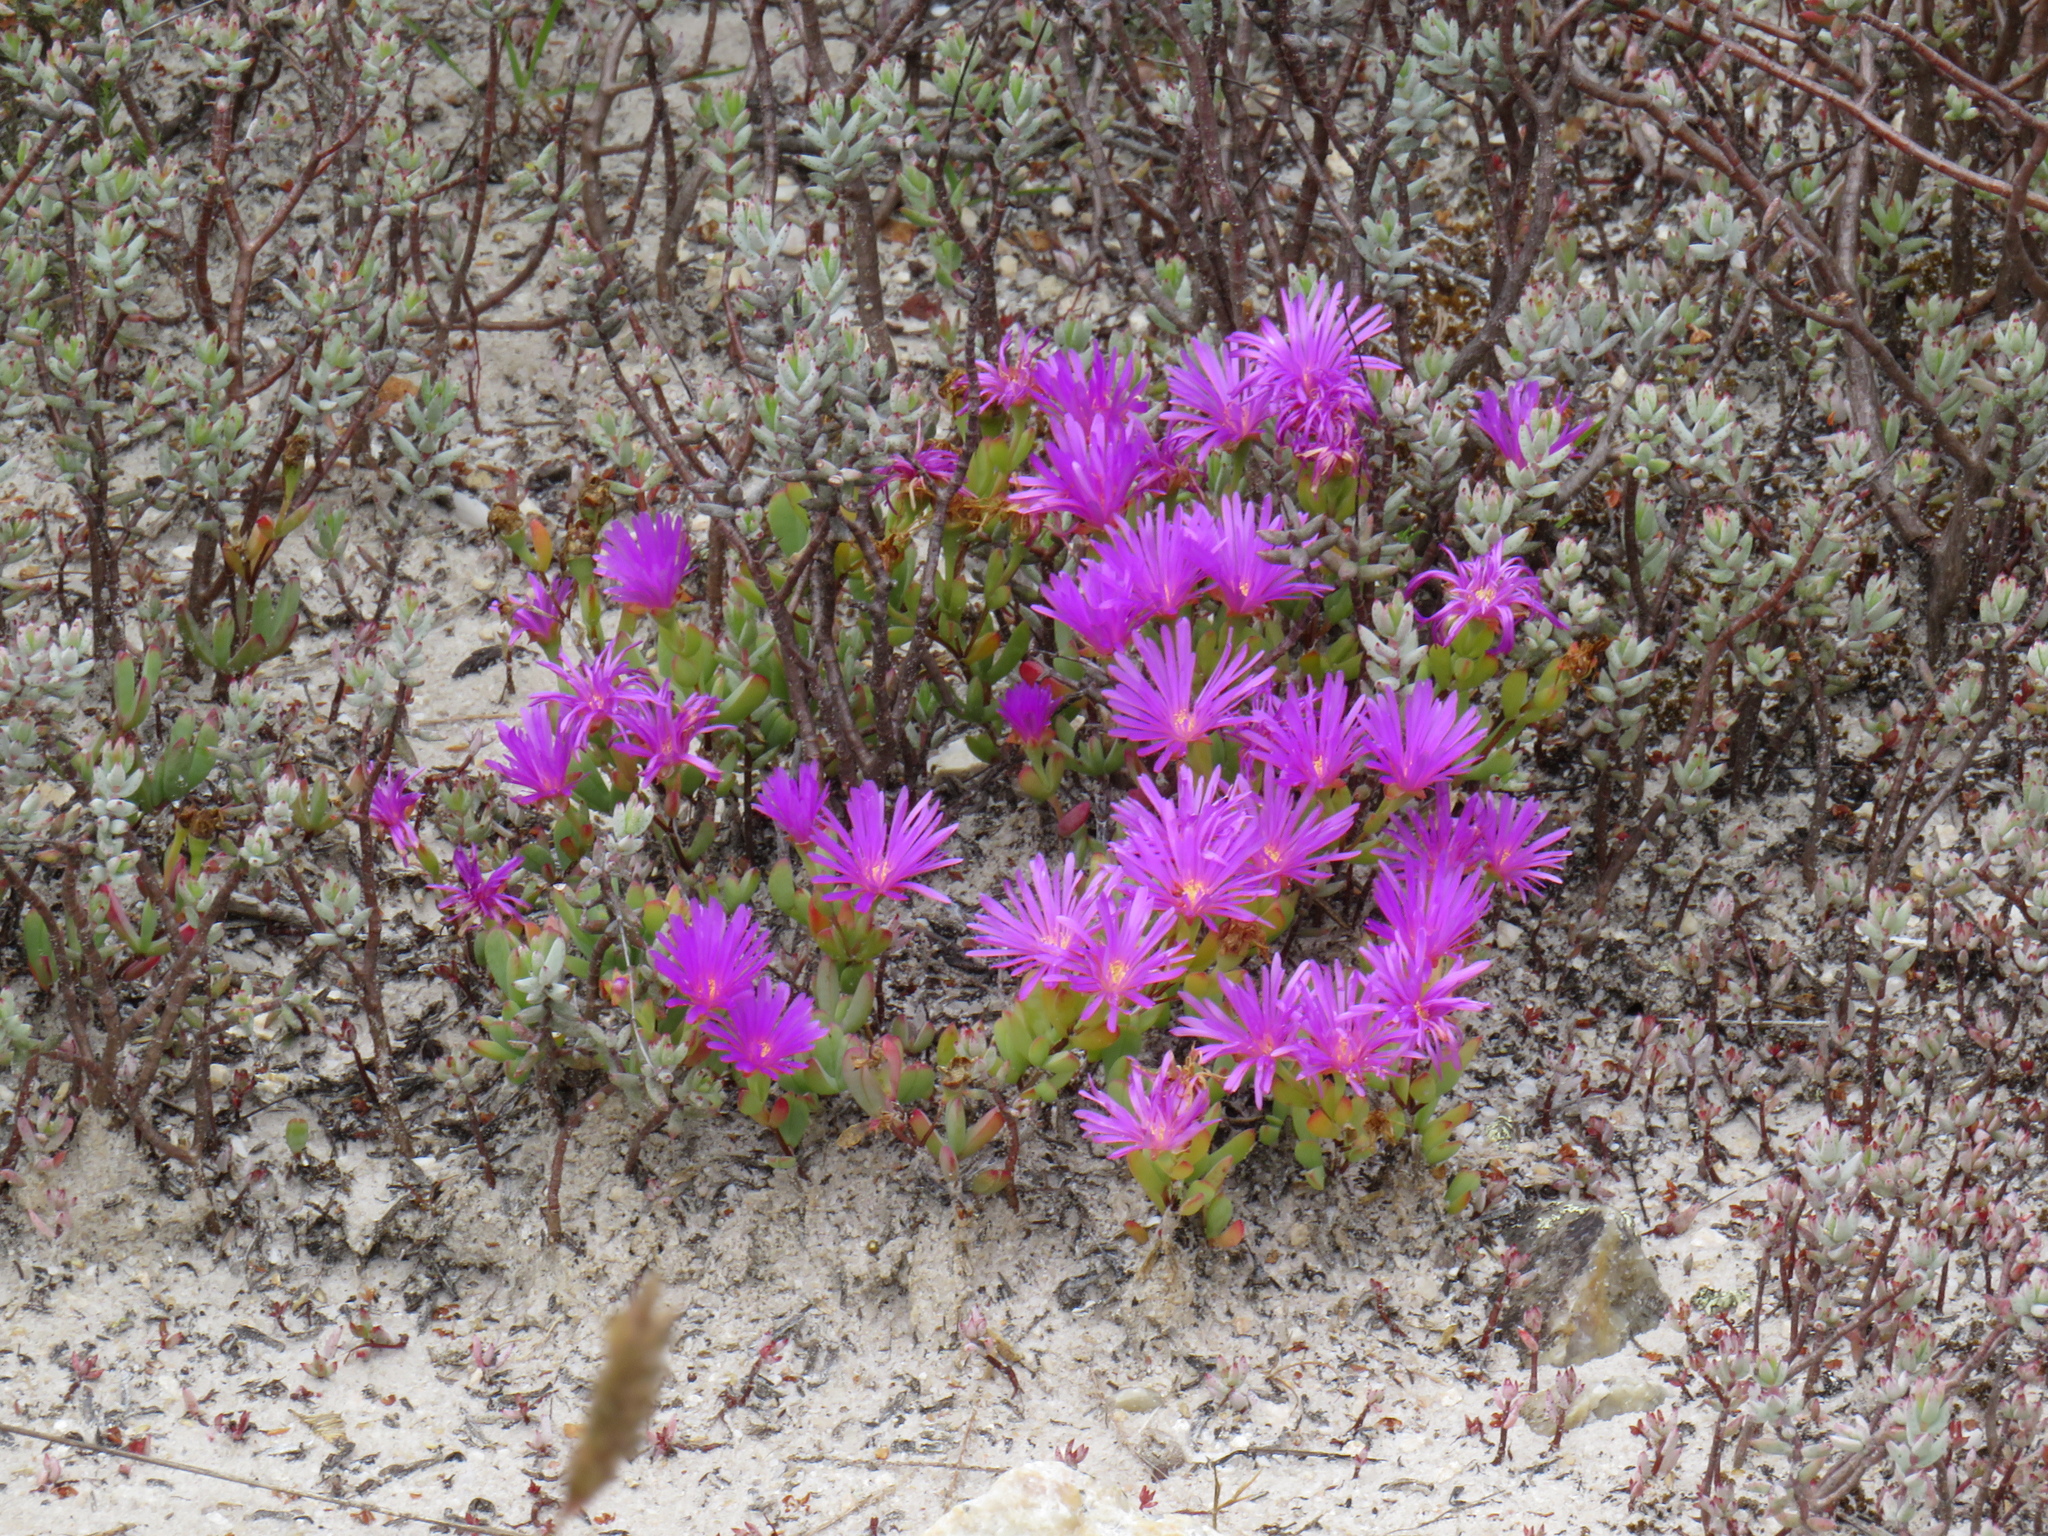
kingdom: Plantae
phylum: Tracheophyta
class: Magnoliopsida
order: Caryophyllales
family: Aizoaceae
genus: Lampranthus
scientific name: Lampranthus glomeratus
